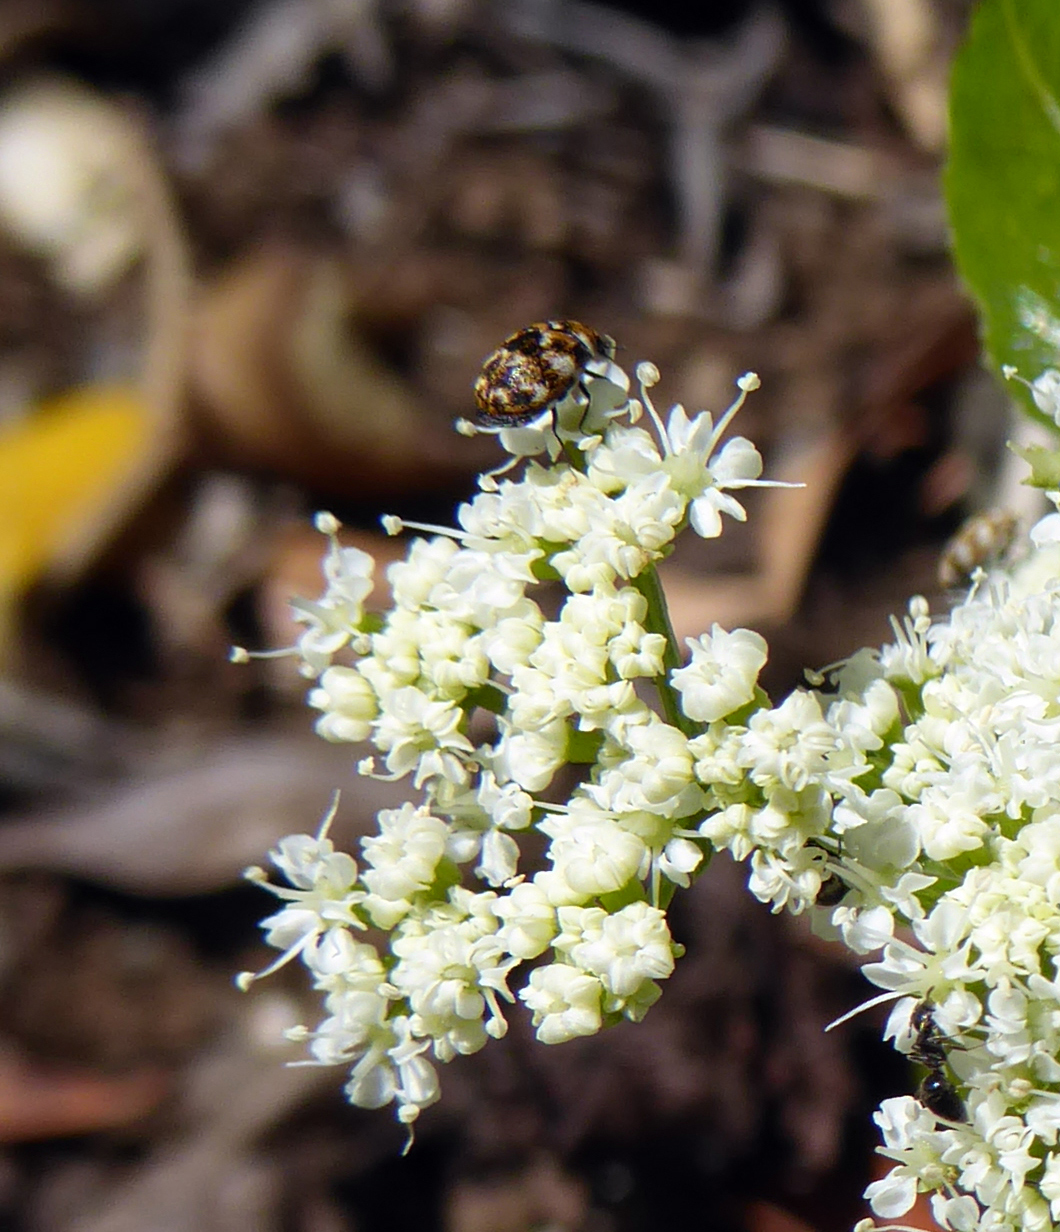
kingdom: Animalia
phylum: Arthropoda
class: Insecta
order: Coleoptera
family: Dermestidae
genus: Anthrenus
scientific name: Anthrenus verbasci
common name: Varied carpet beetle
